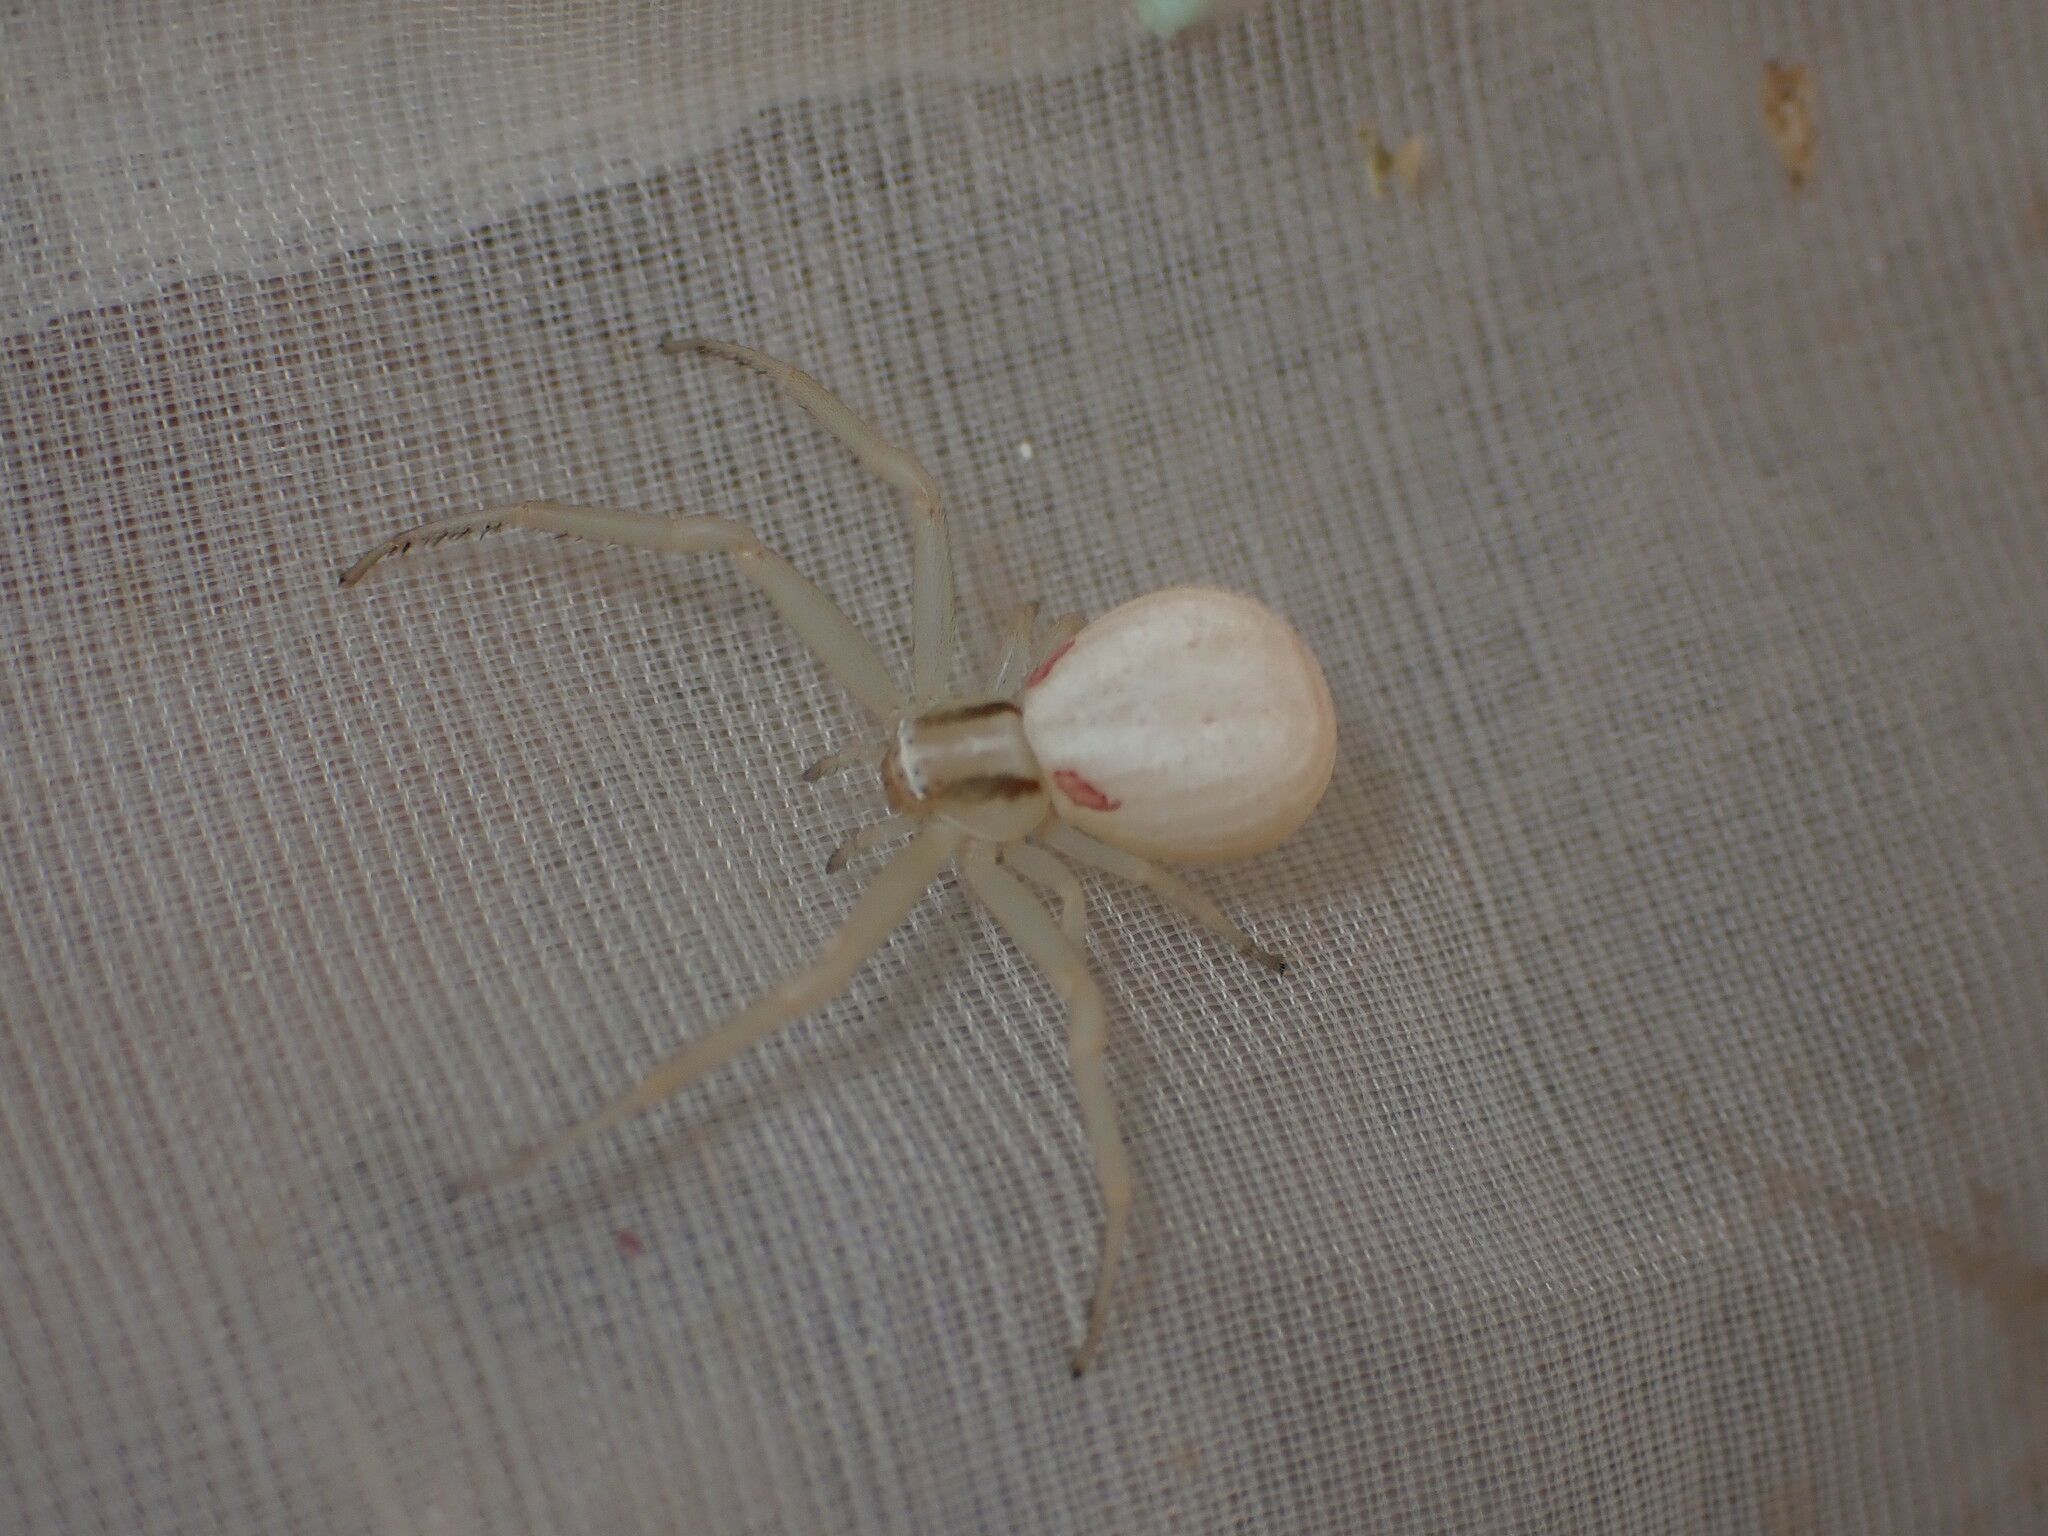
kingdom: Animalia
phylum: Arthropoda
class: Arachnida
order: Araneae
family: Thomisidae
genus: Runcinia
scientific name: Runcinia grammica
